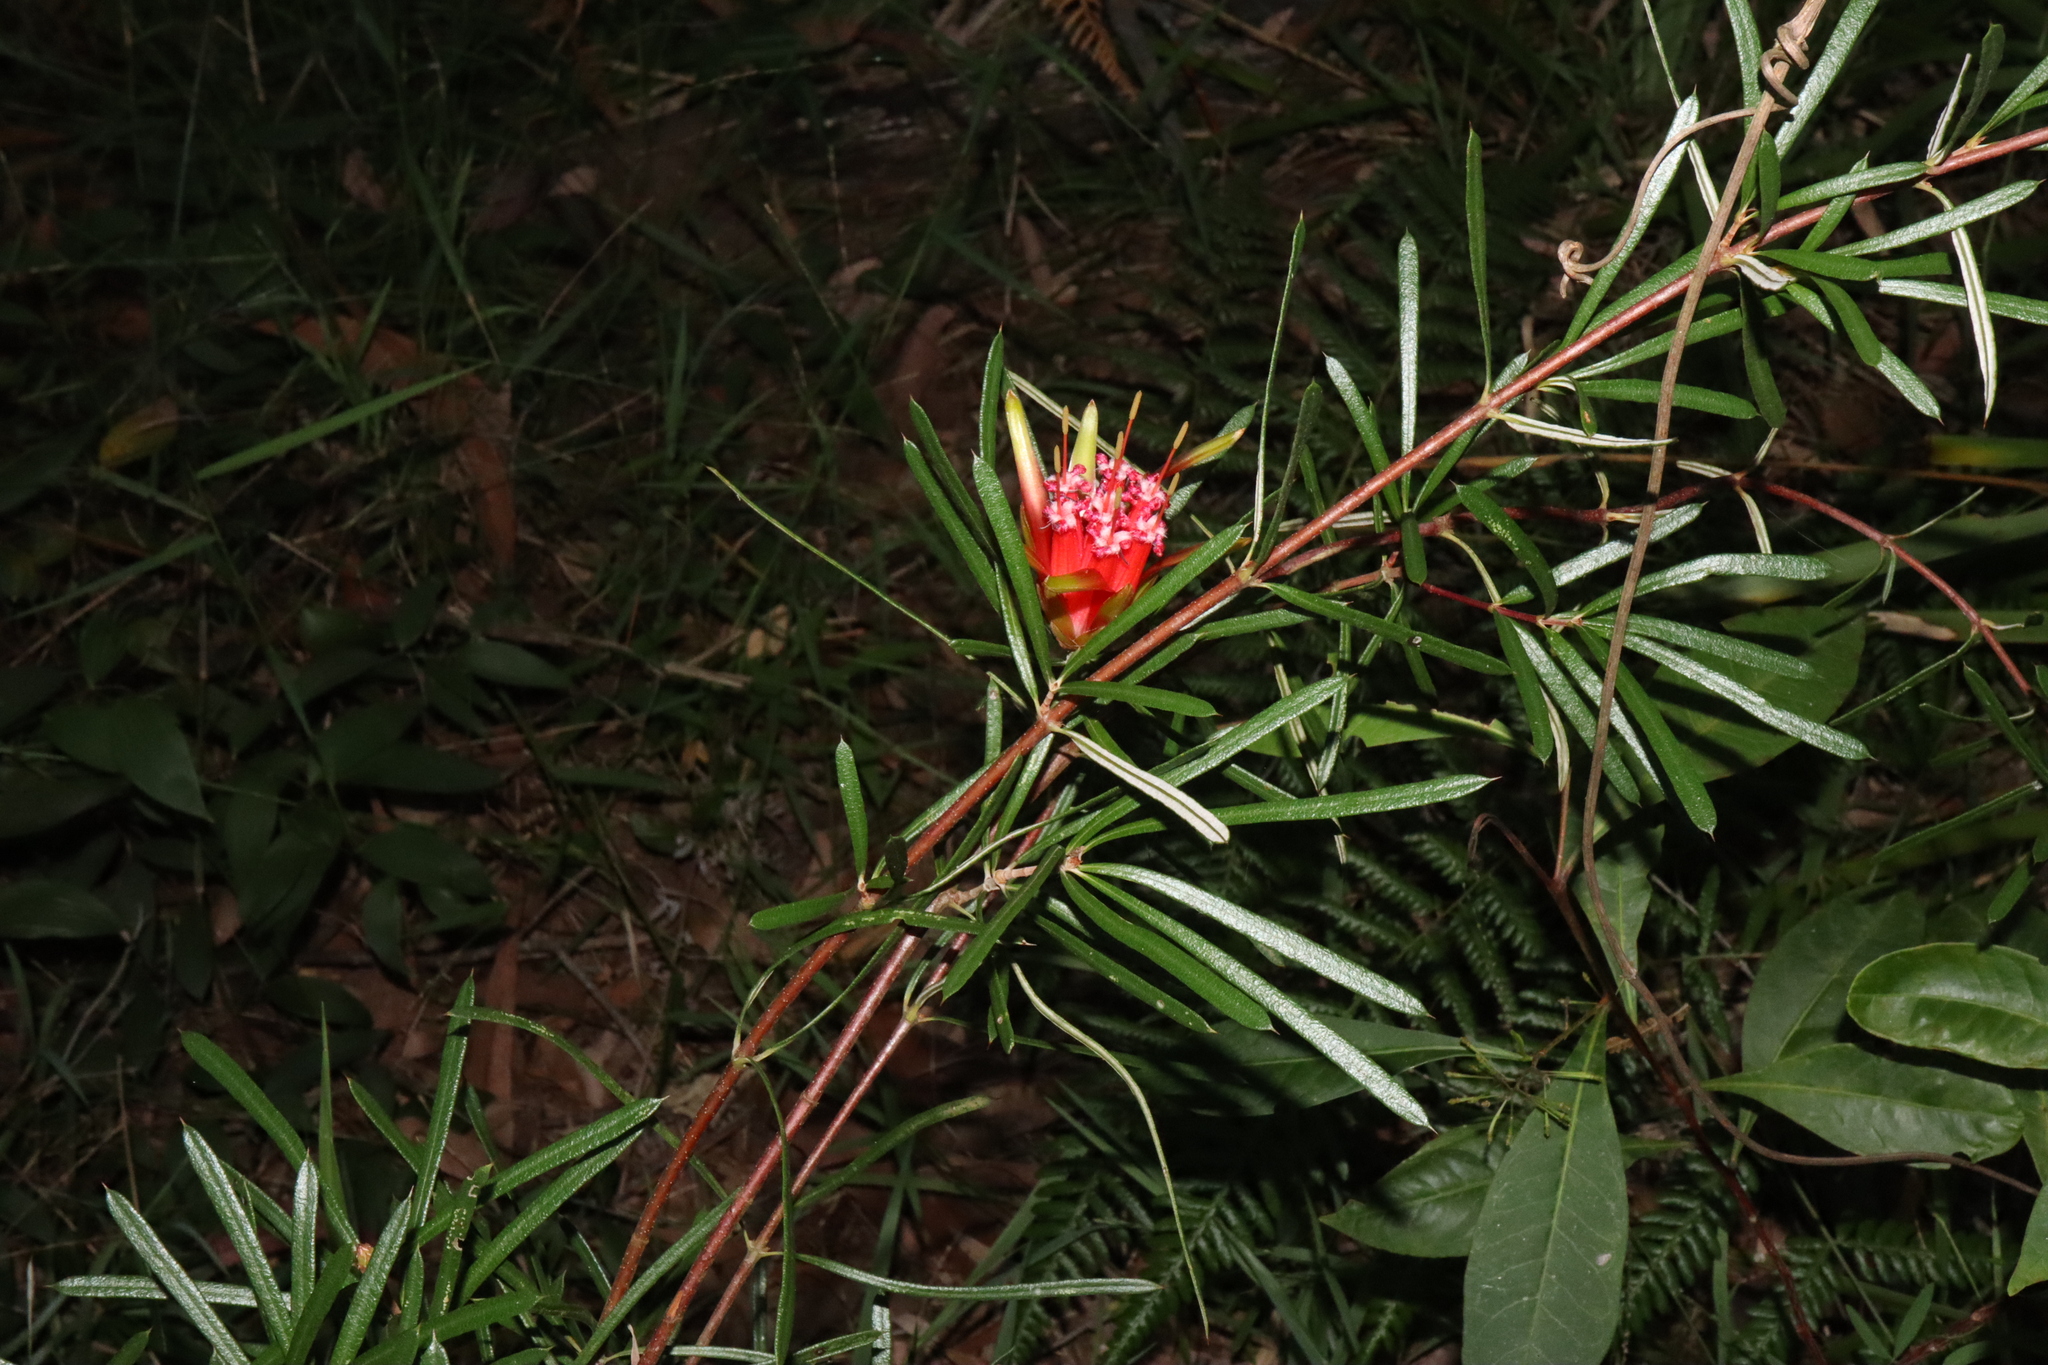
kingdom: Plantae
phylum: Tracheophyta
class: Magnoliopsida
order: Proteales
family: Proteaceae
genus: Lambertia
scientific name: Lambertia formosa
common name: Mountain-devil
